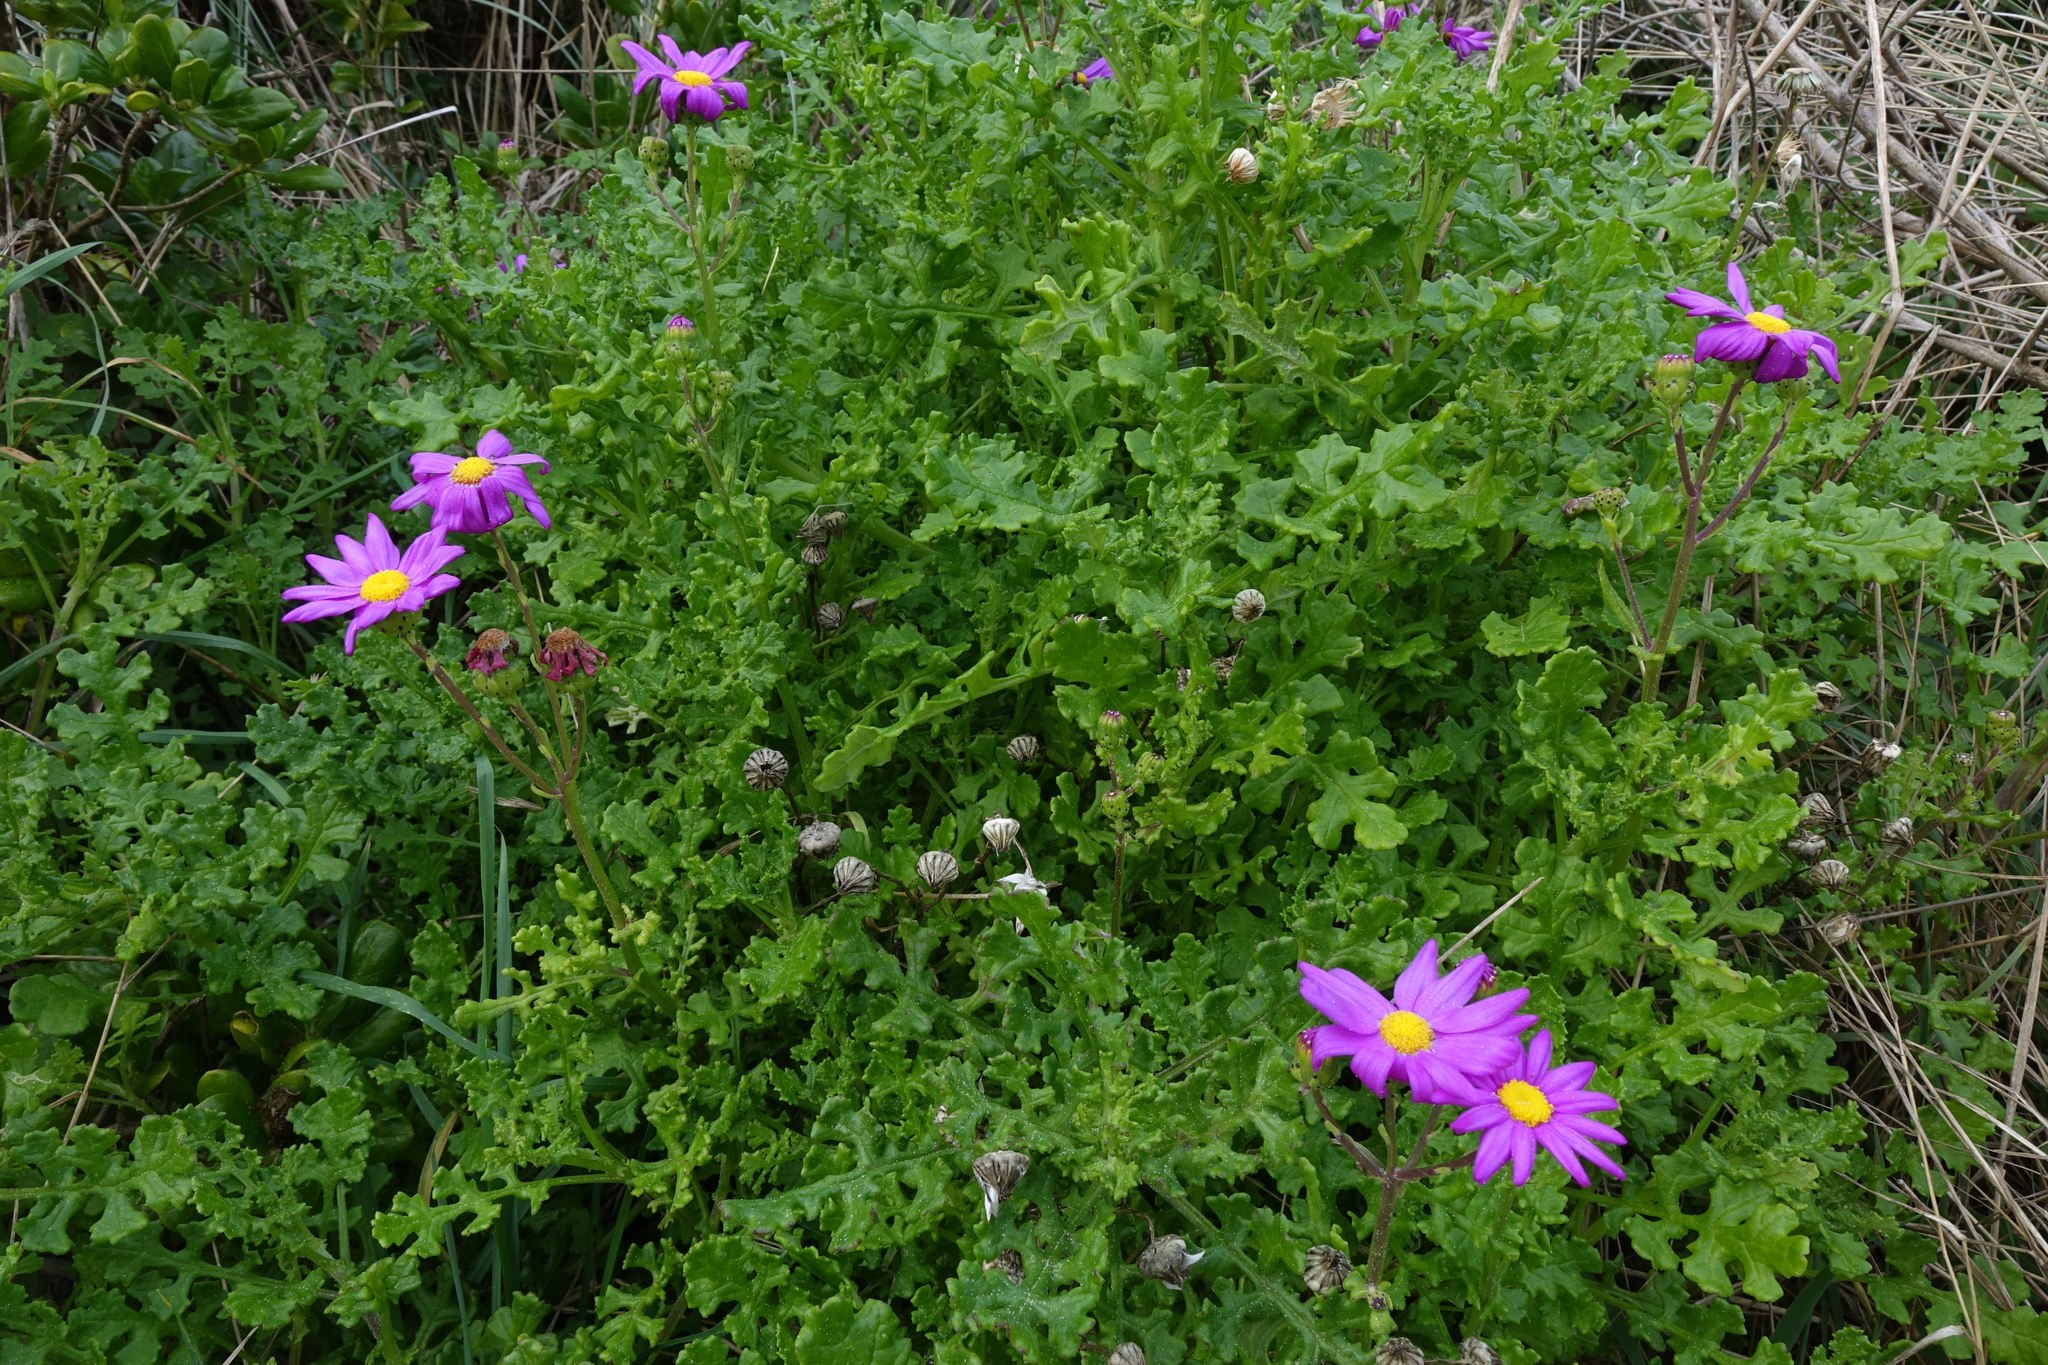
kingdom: Plantae
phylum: Tracheophyta
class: Magnoliopsida
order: Asterales
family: Asteraceae
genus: Senecio
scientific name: Senecio elegans
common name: Purple groundsel
